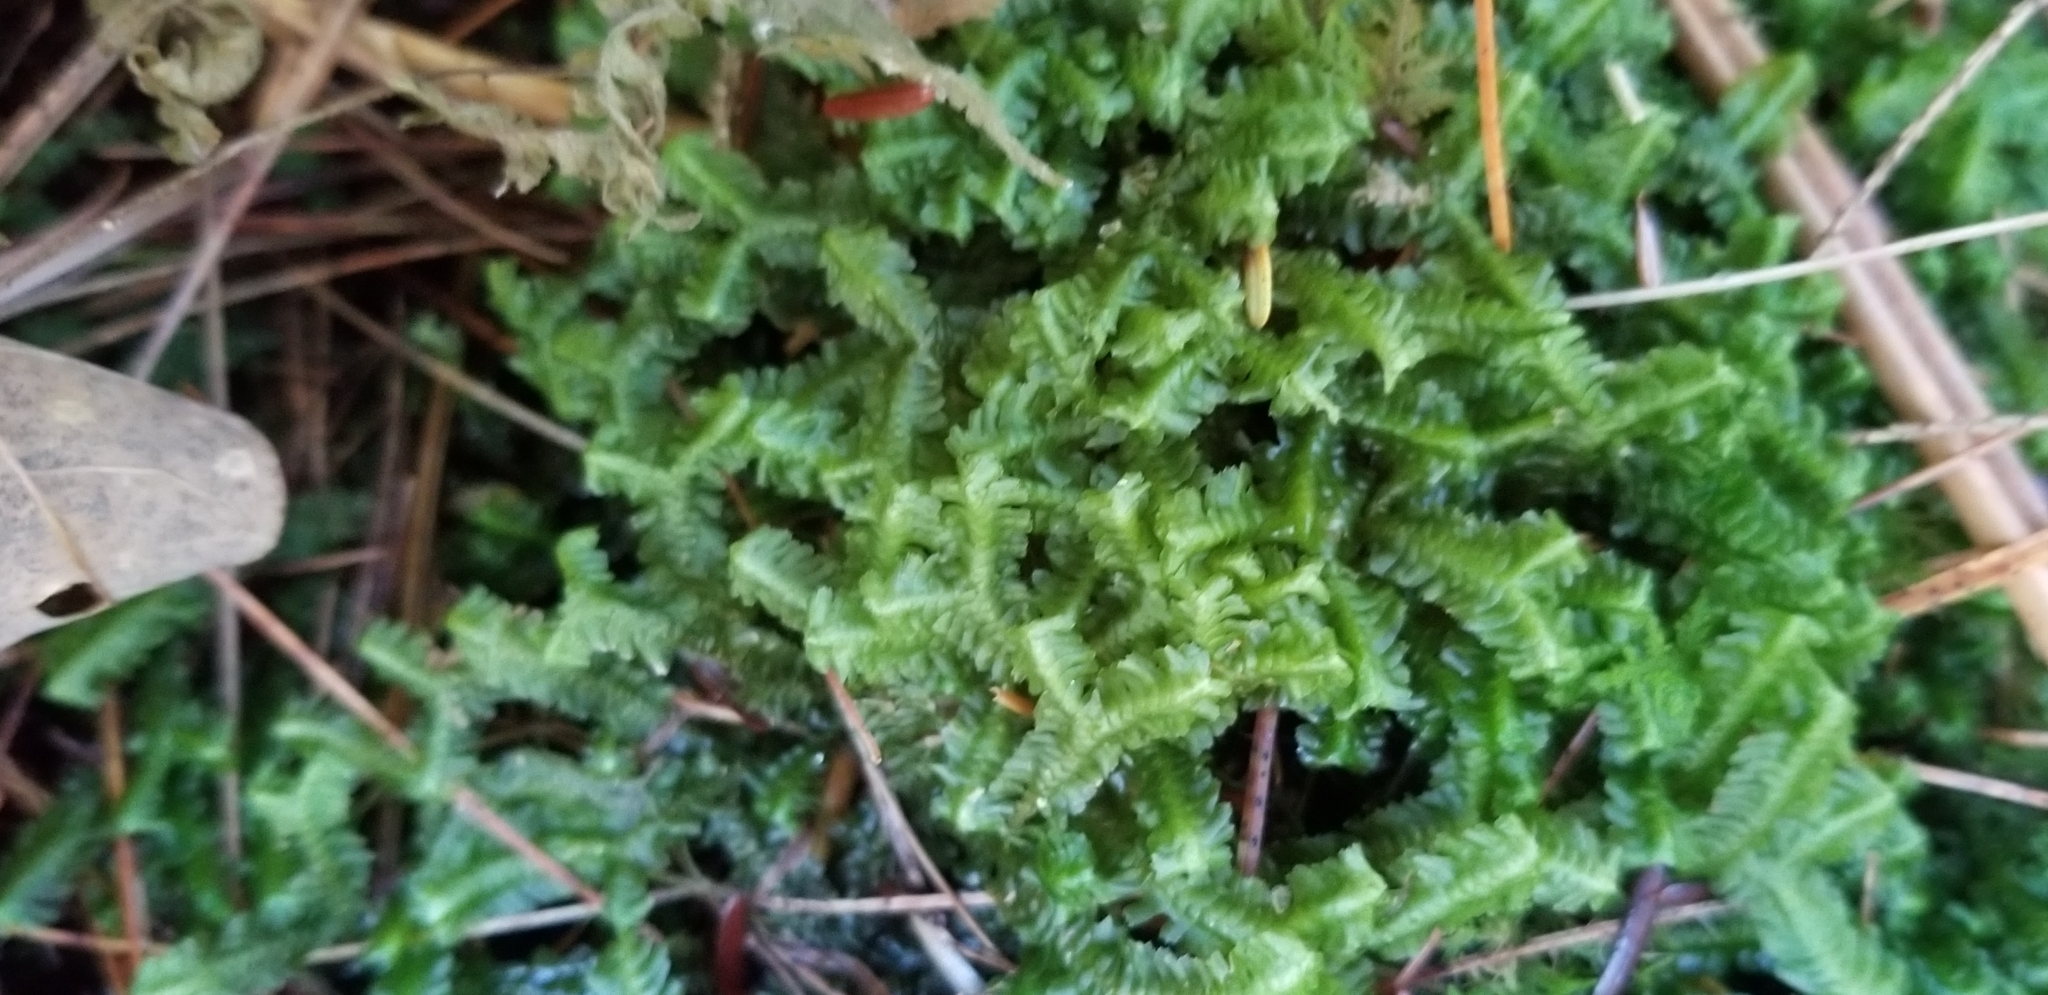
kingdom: Plantae
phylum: Marchantiophyta
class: Jungermanniopsida
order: Jungermanniales
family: Lepidoziaceae
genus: Bazzania
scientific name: Bazzania trilobata
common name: Three-lobed whipwort
